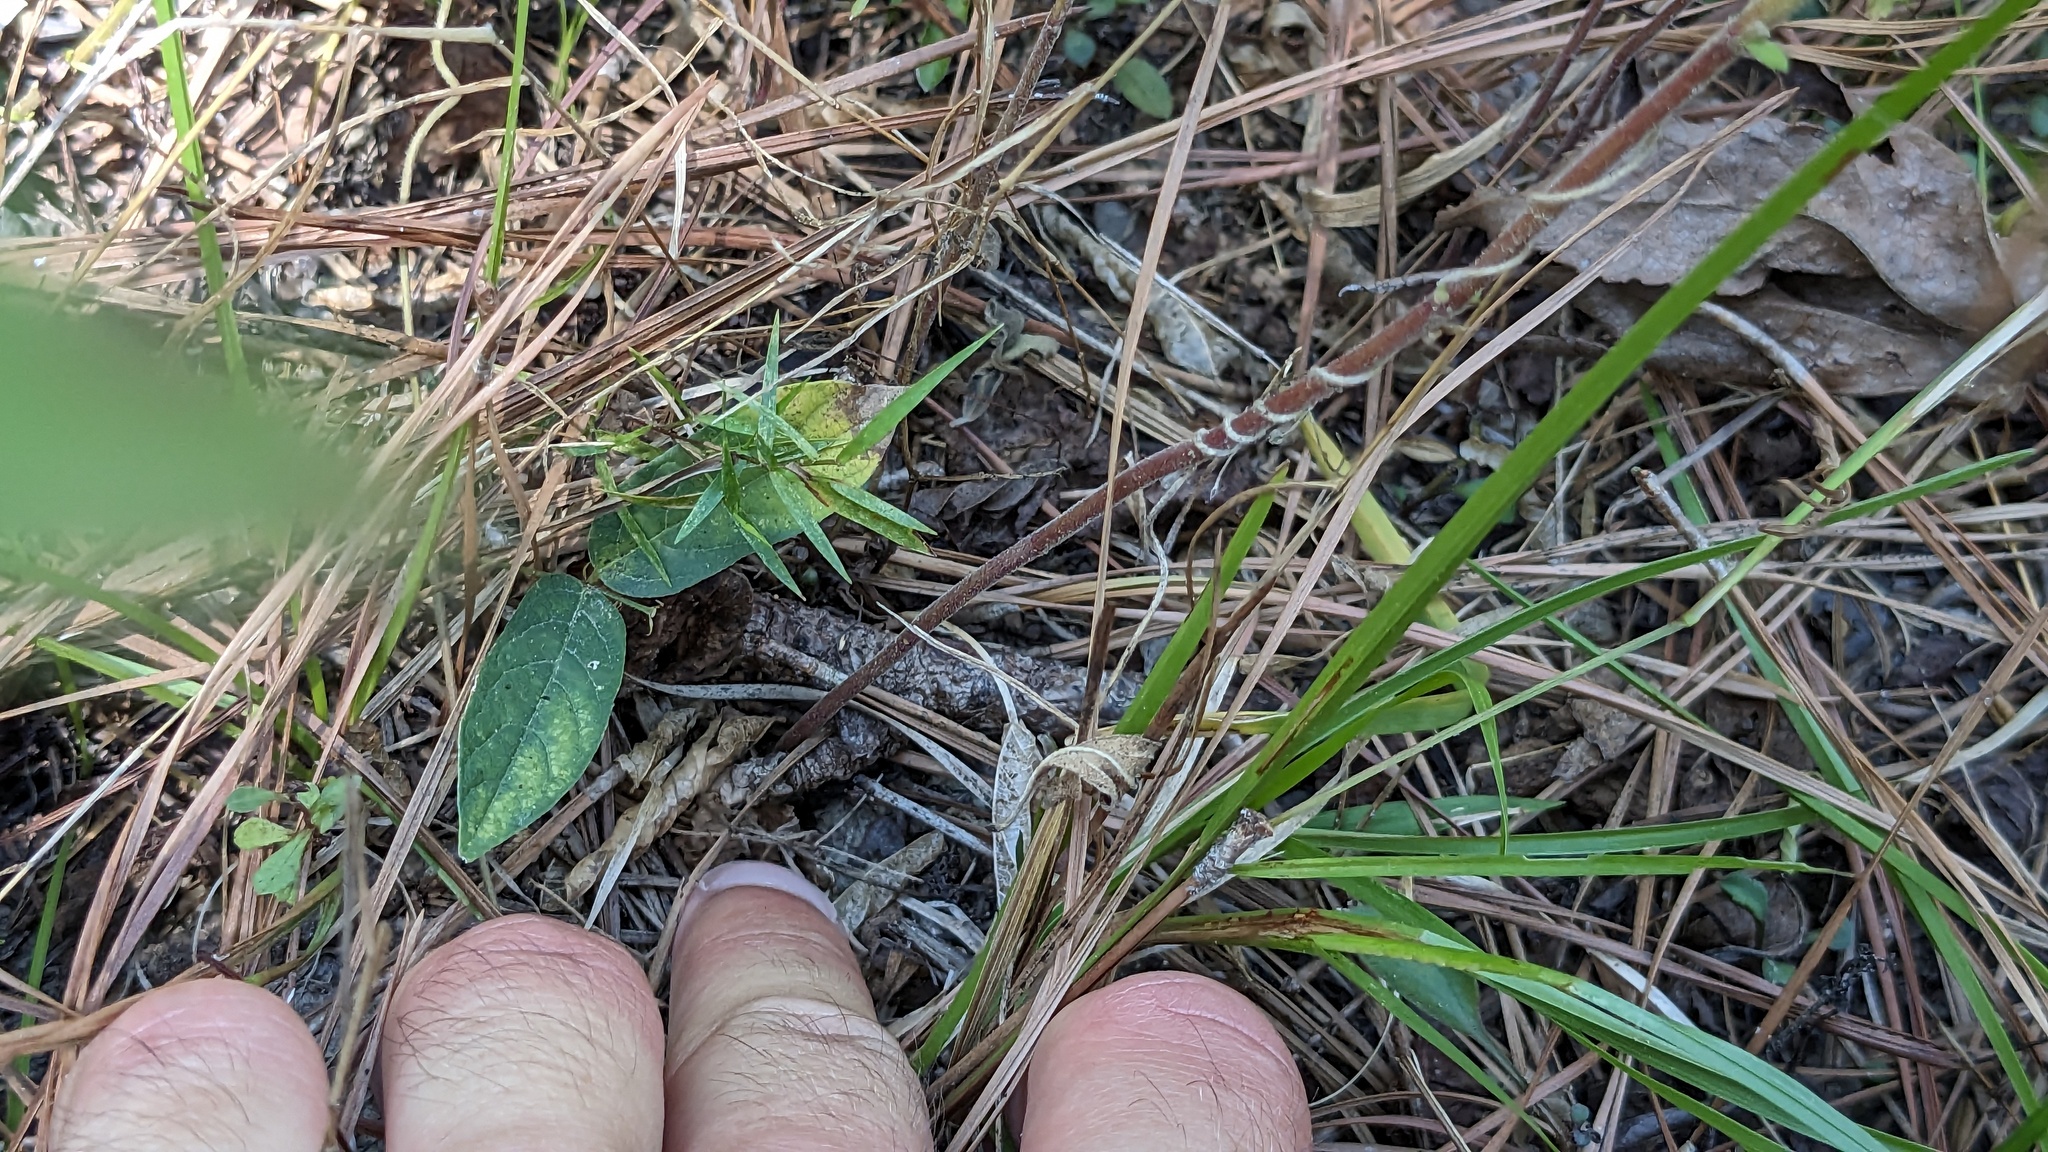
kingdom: Plantae
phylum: Tracheophyta
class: Magnoliopsida
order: Lamiales
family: Lamiaceae
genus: Trichostema
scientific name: Trichostema dichotomum
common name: Bastard pennyroyal
